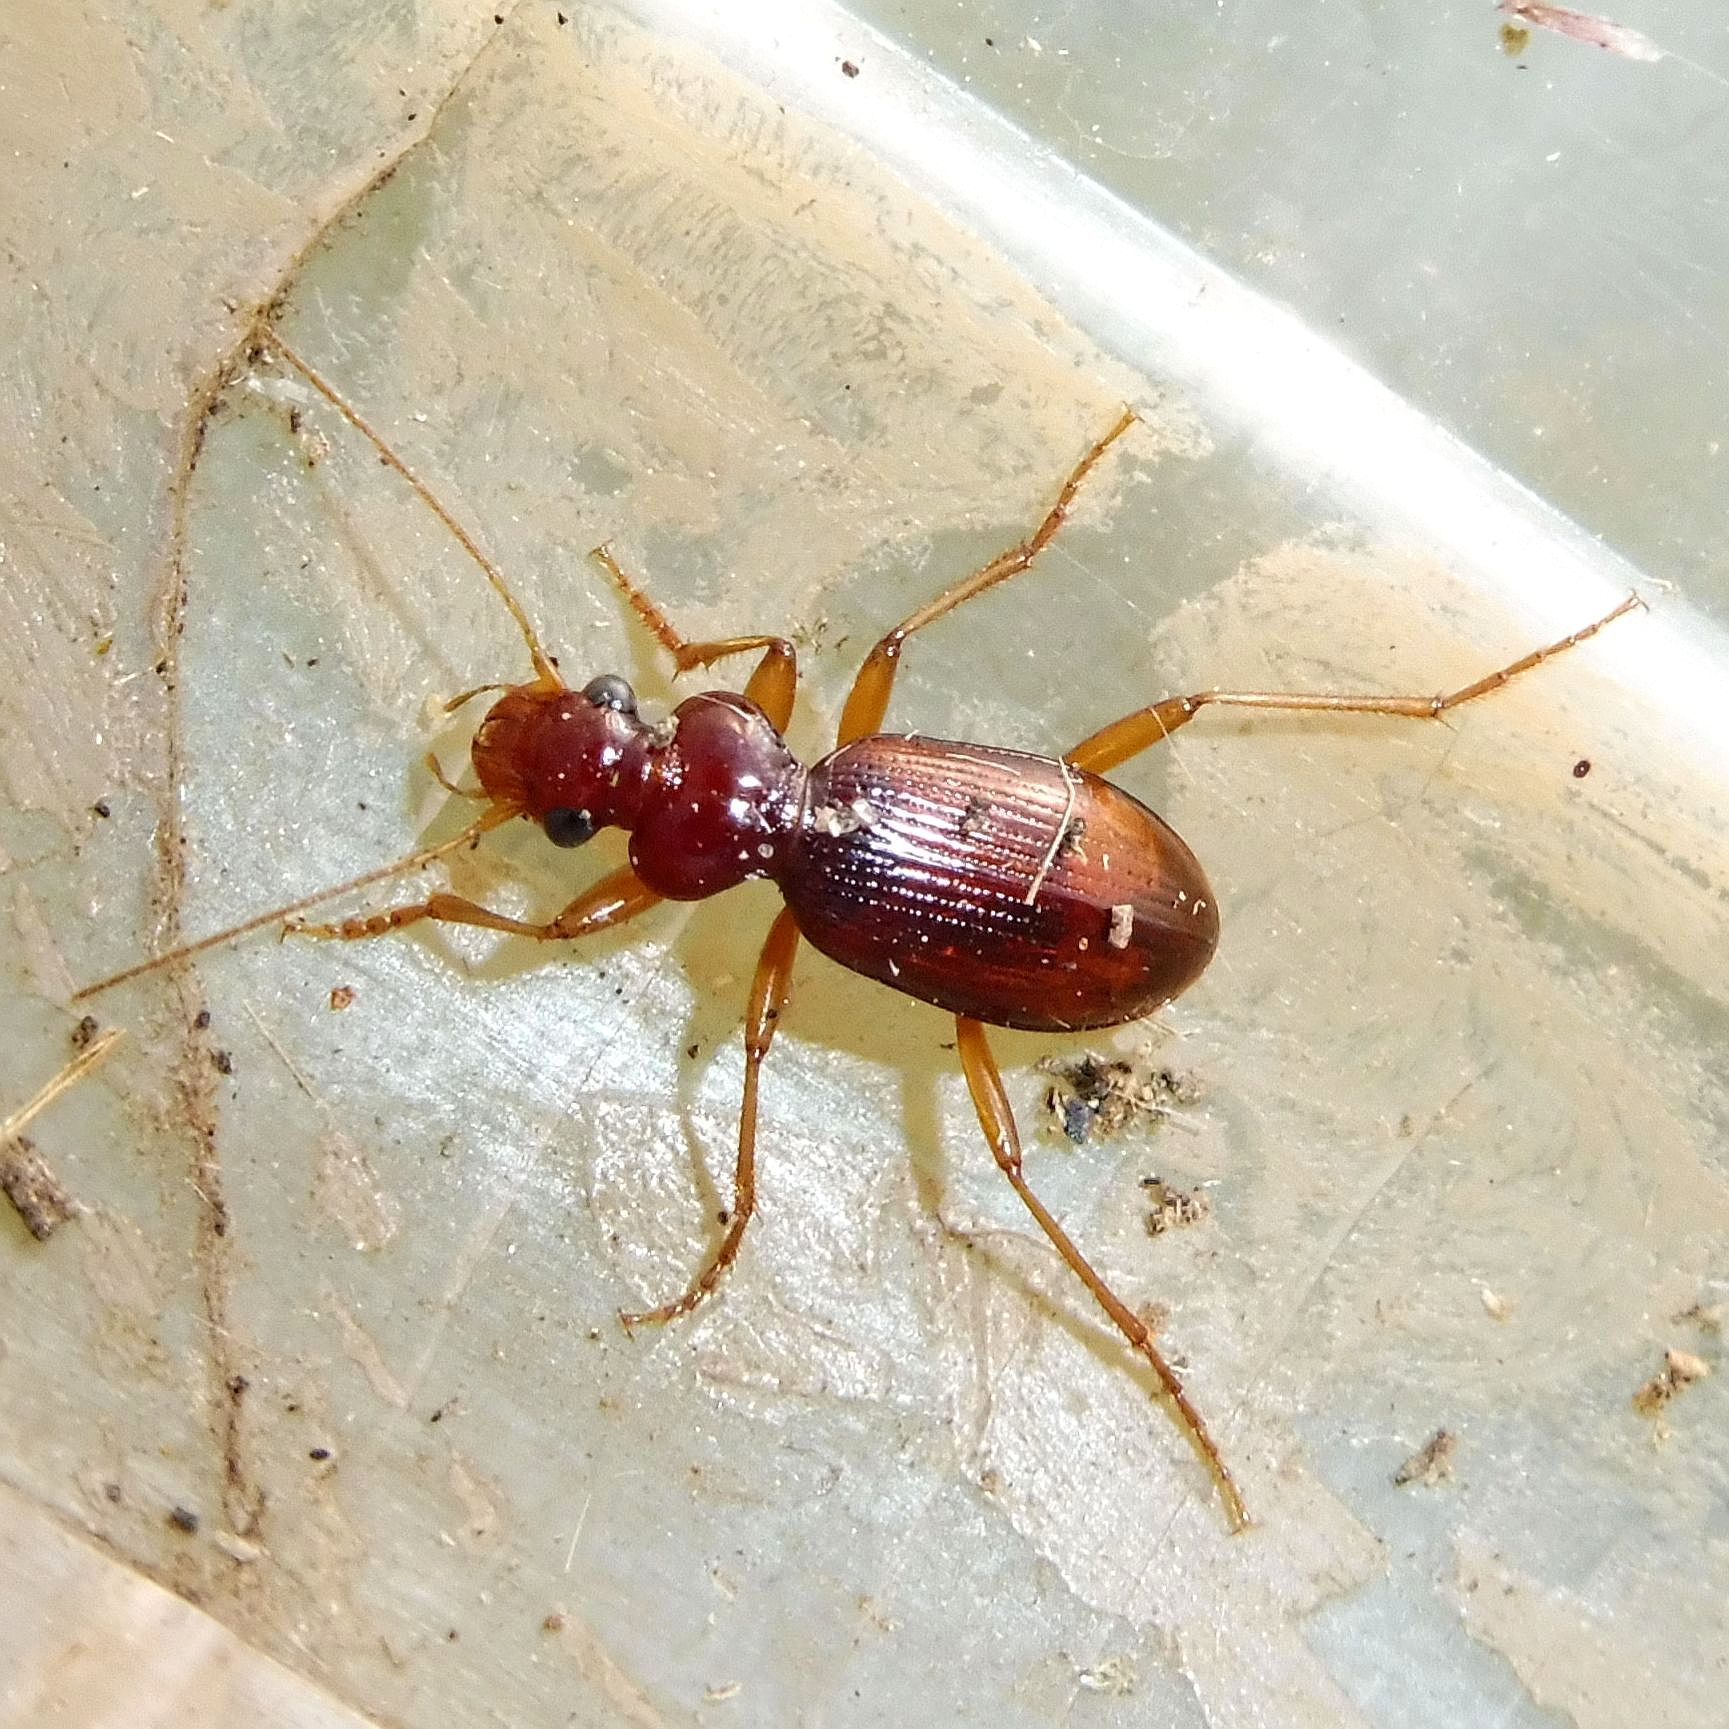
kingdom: Animalia
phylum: Arthropoda
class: Insecta
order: Coleoptera
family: Carabidae
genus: Leistus
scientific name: Leistus ferrugineus
